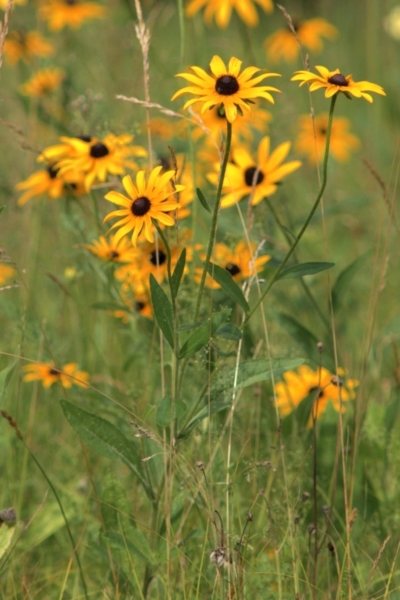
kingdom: Plantae
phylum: Tracheophyta
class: Magnoliopsida
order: Asterales
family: Asteraceae
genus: Rudbeckia
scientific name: Rudbeckia hirta
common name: Black-eyed-susan
